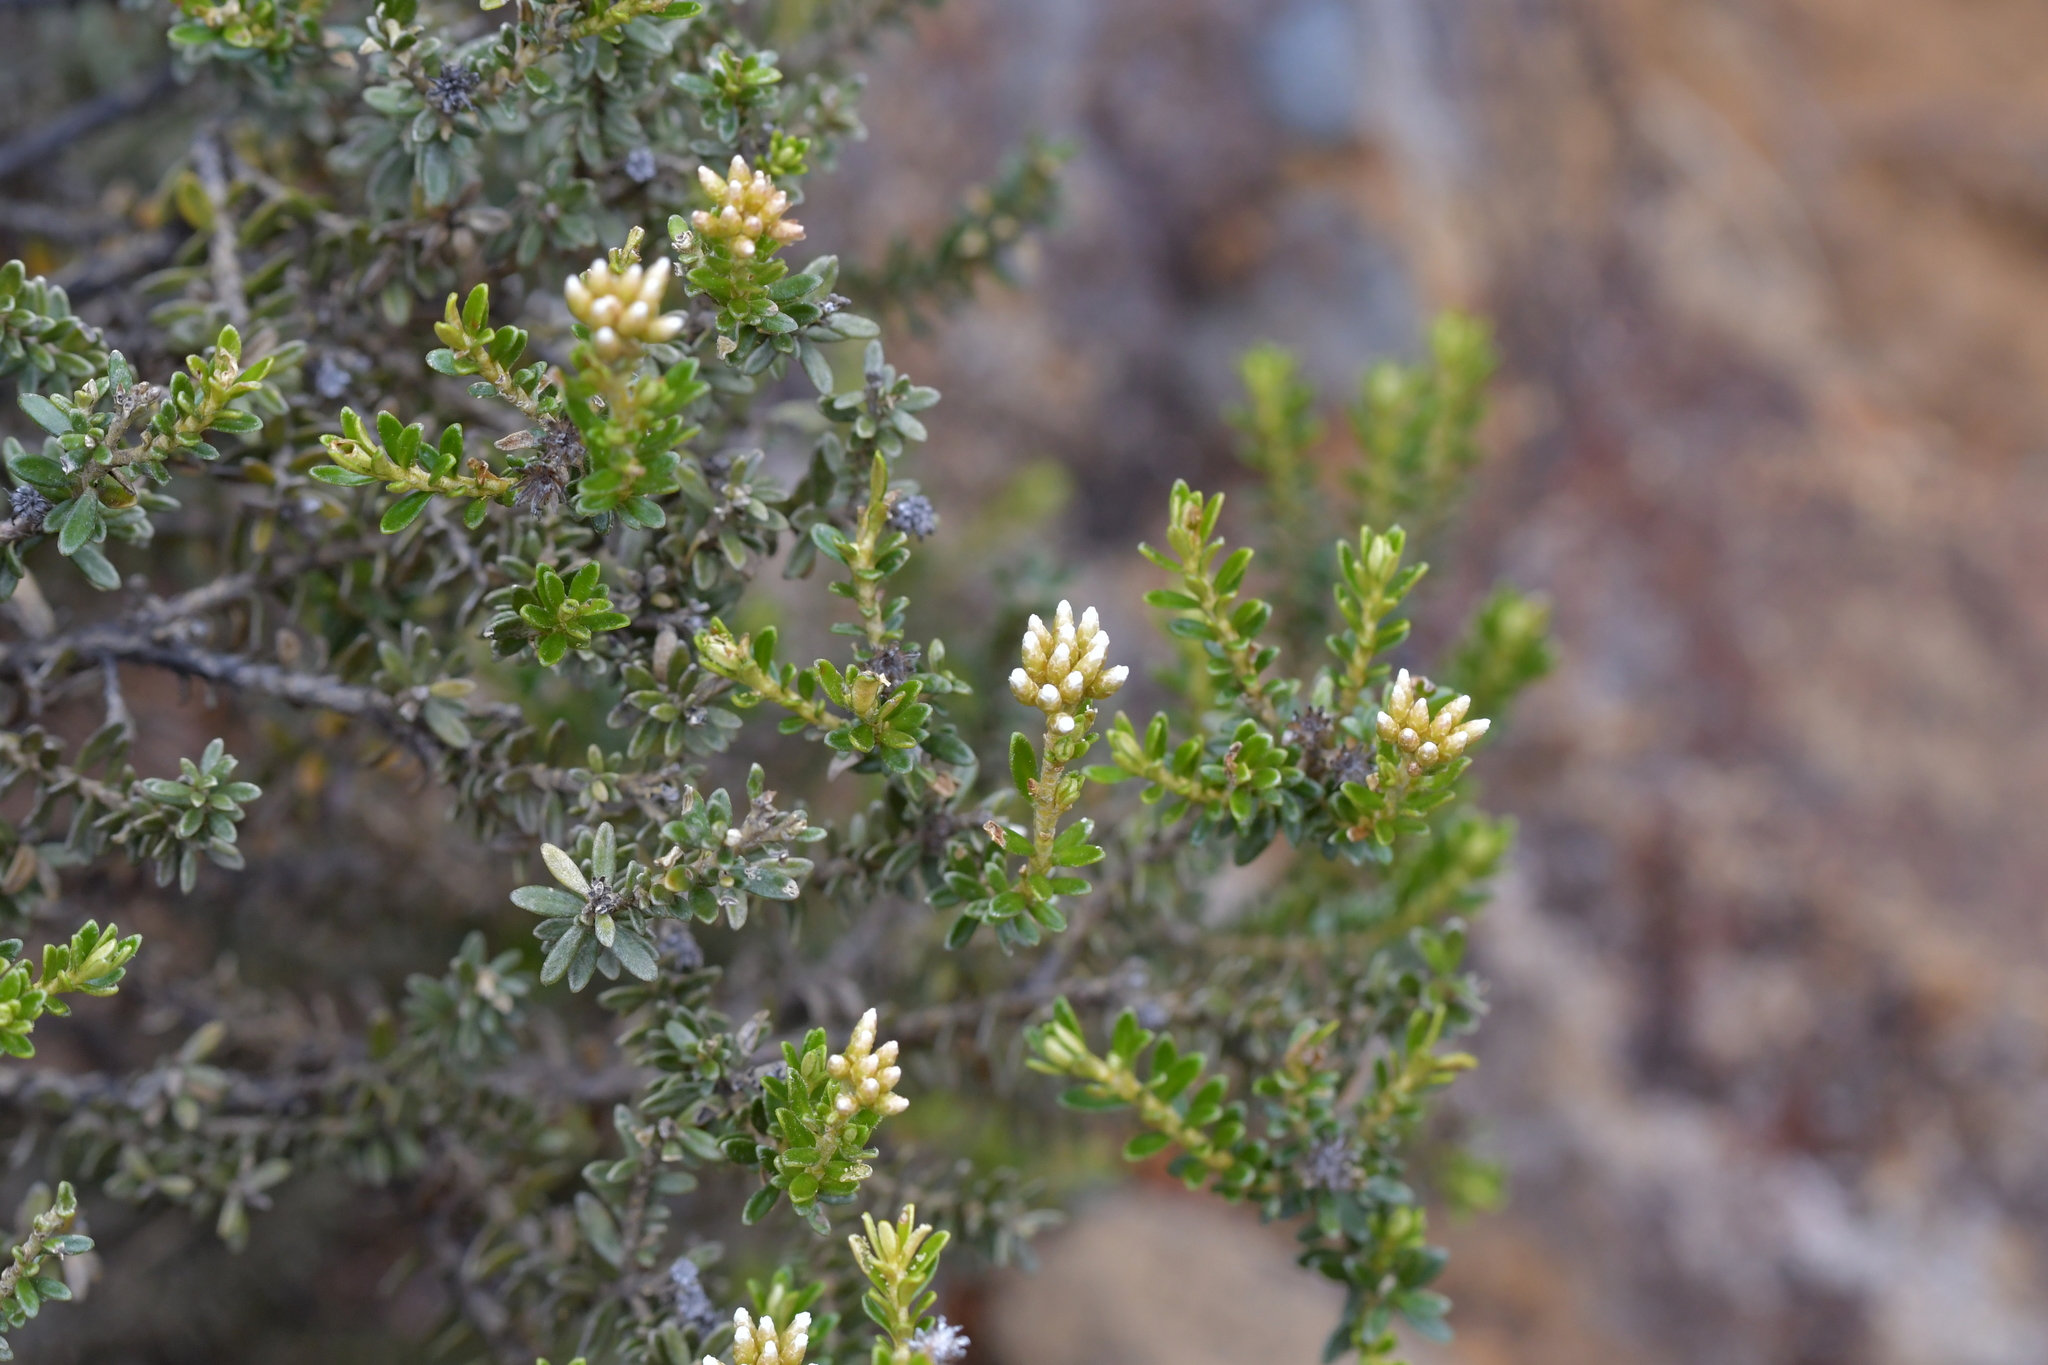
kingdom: Plantae
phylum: Tracheophyta
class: Magnoliopsida
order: Asterales
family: Asteraceae
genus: Ozothamnus
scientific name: Ozothamnus leptophyllus
